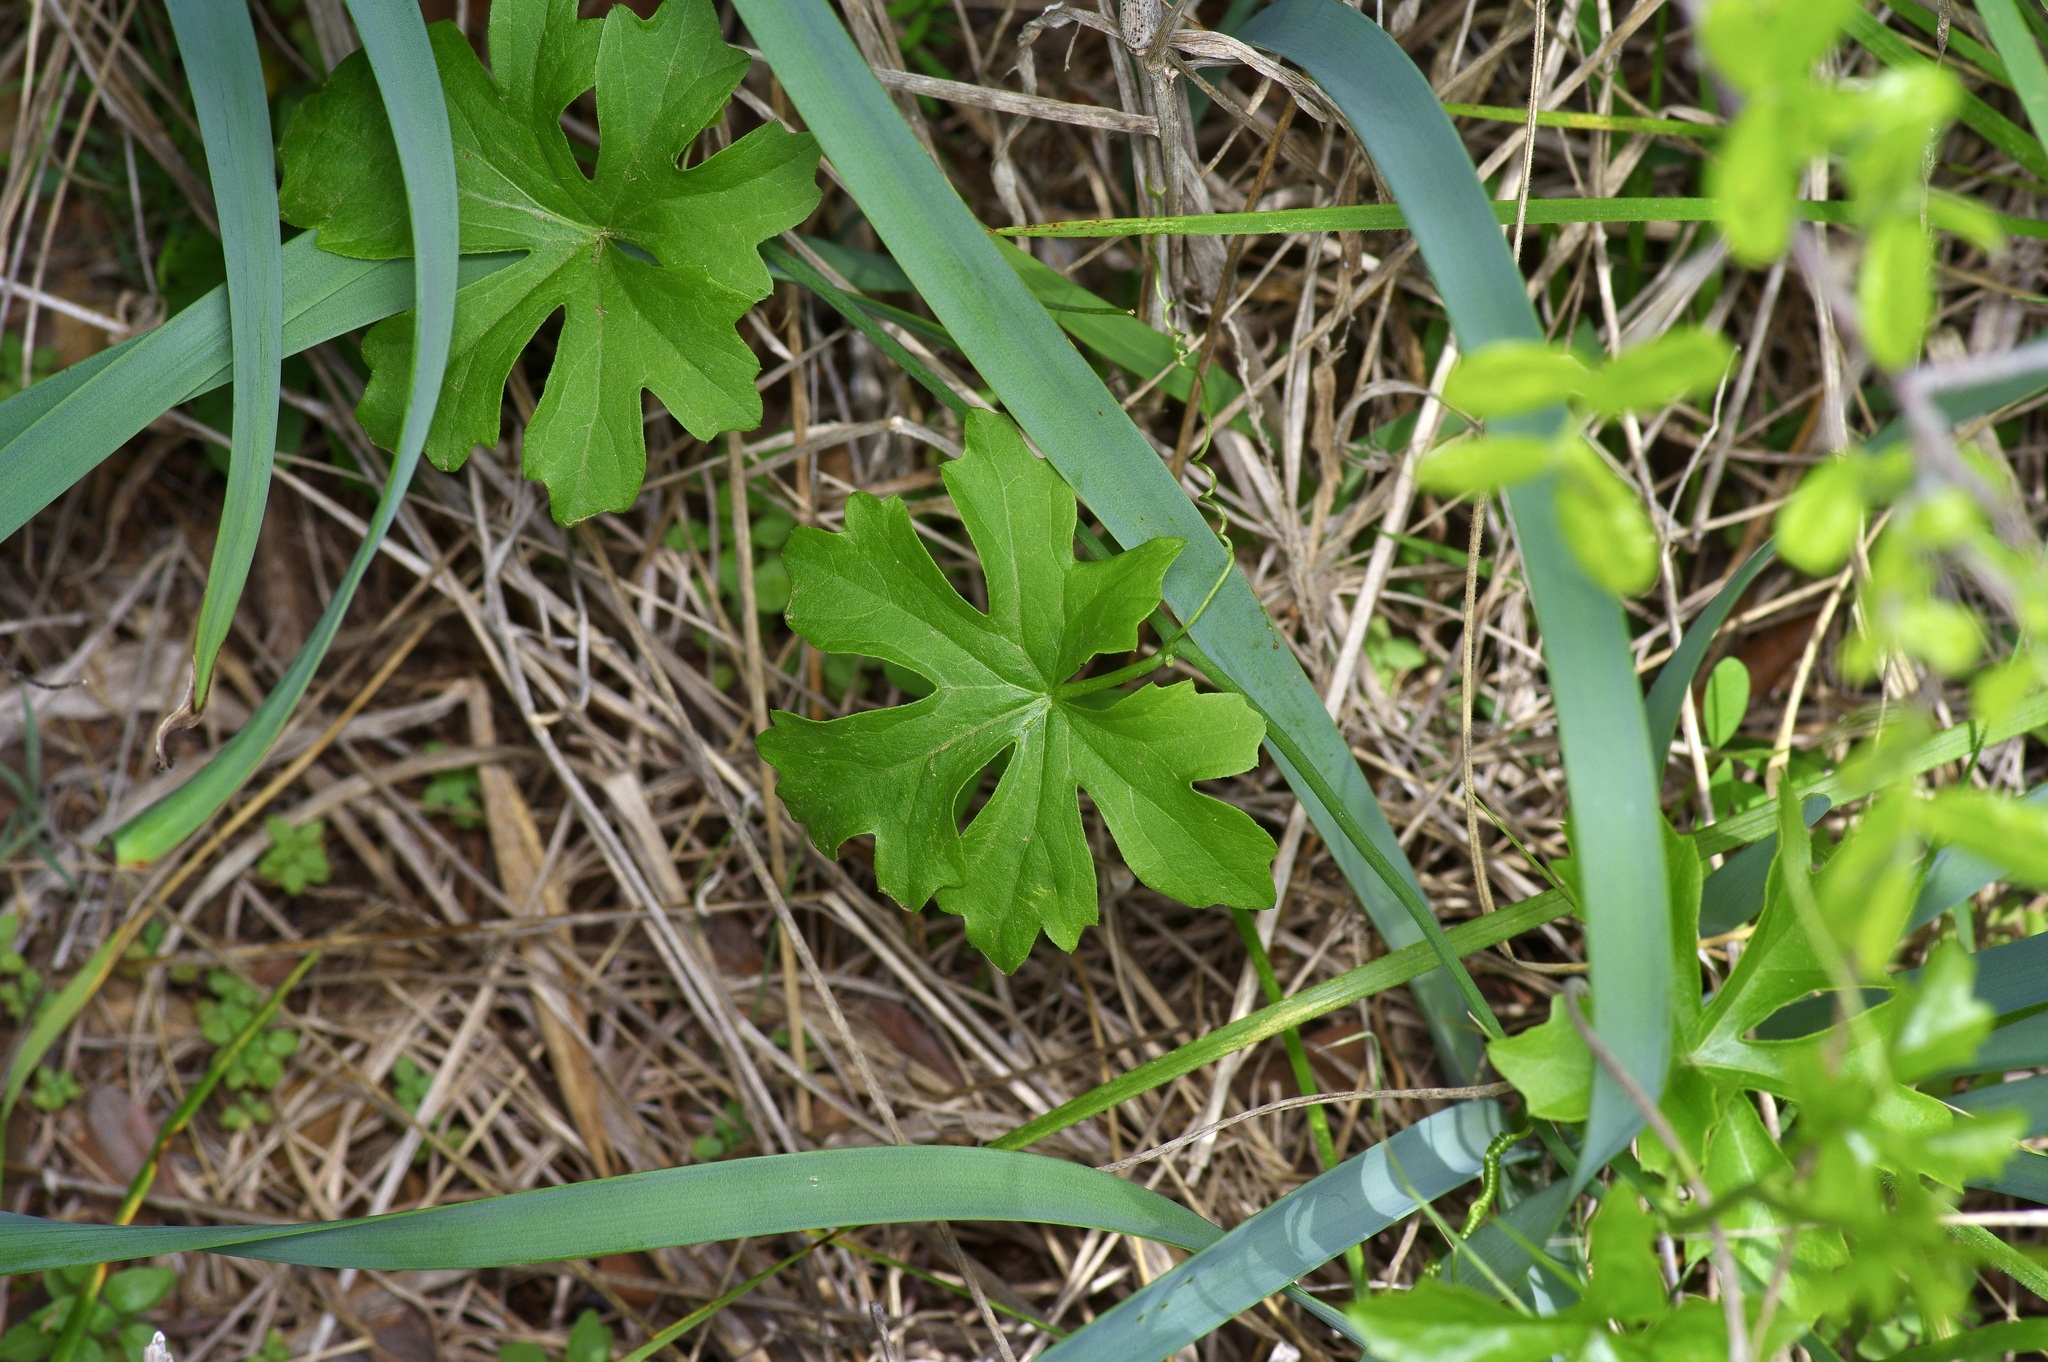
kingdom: Plantae
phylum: Tracheophyta
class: Magnoliopsida
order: Cucurbitales
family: Cucurbitaceae
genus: Ibervillea
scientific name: Ibervillea lindheimeri
